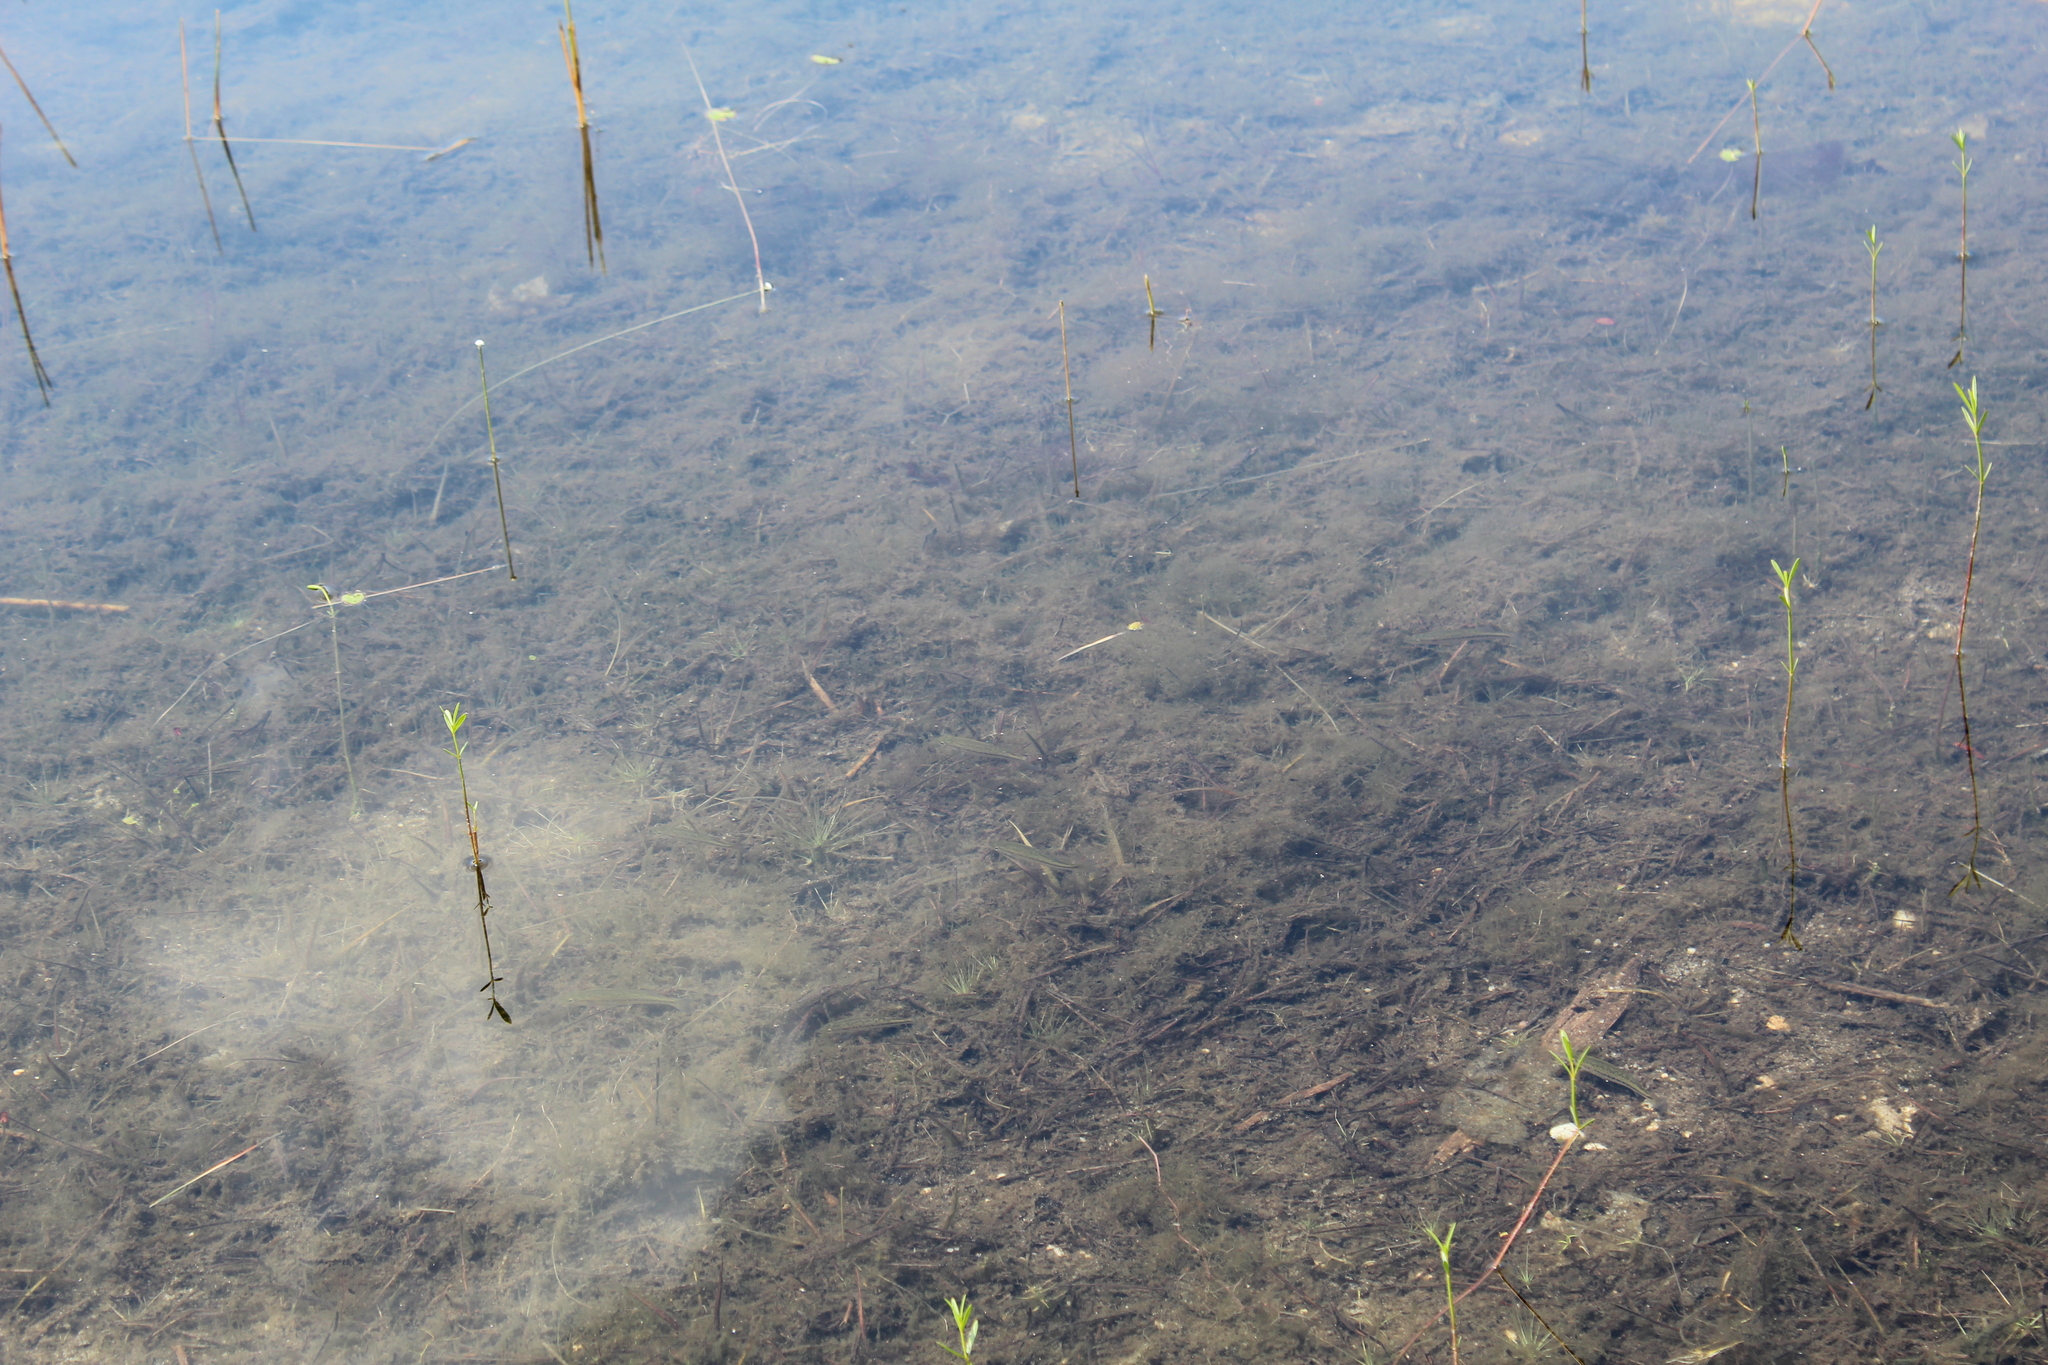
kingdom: Animalia
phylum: Chordata
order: Perciformes
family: Centrarchidae
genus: Micropterus
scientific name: Micropterus
